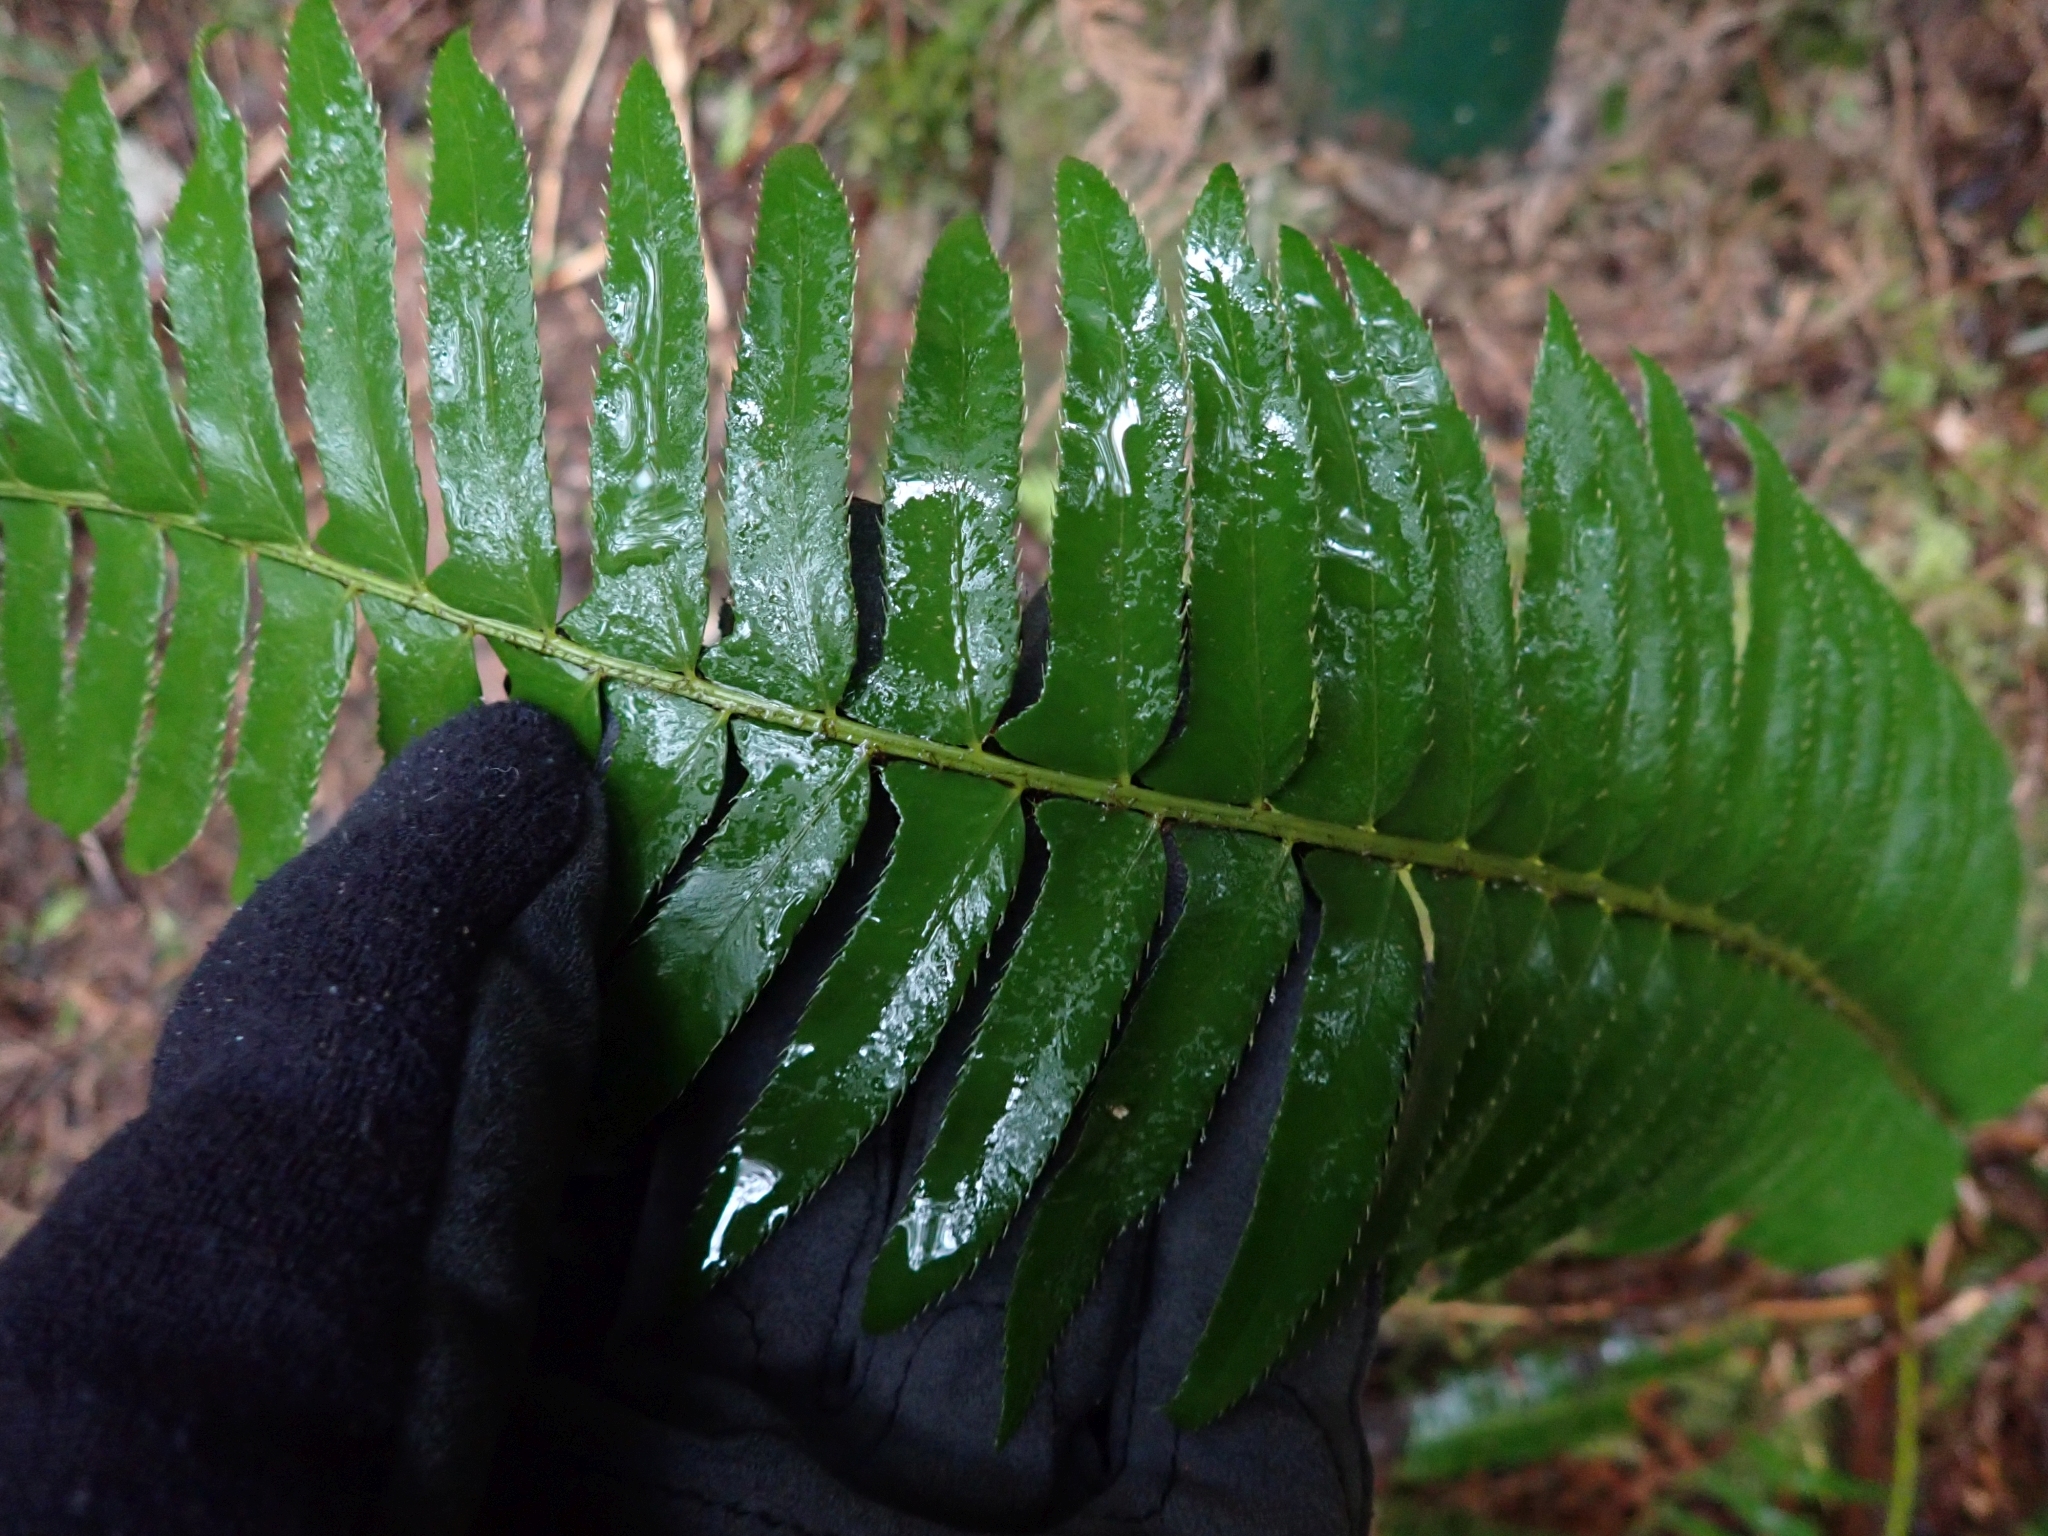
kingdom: Plantae
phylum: Tracheophyta
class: Polypodiopsida
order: Polypodiales
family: Blechnaceae
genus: Struthiopteris
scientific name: Struthiopteris spicant
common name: Deer fern
